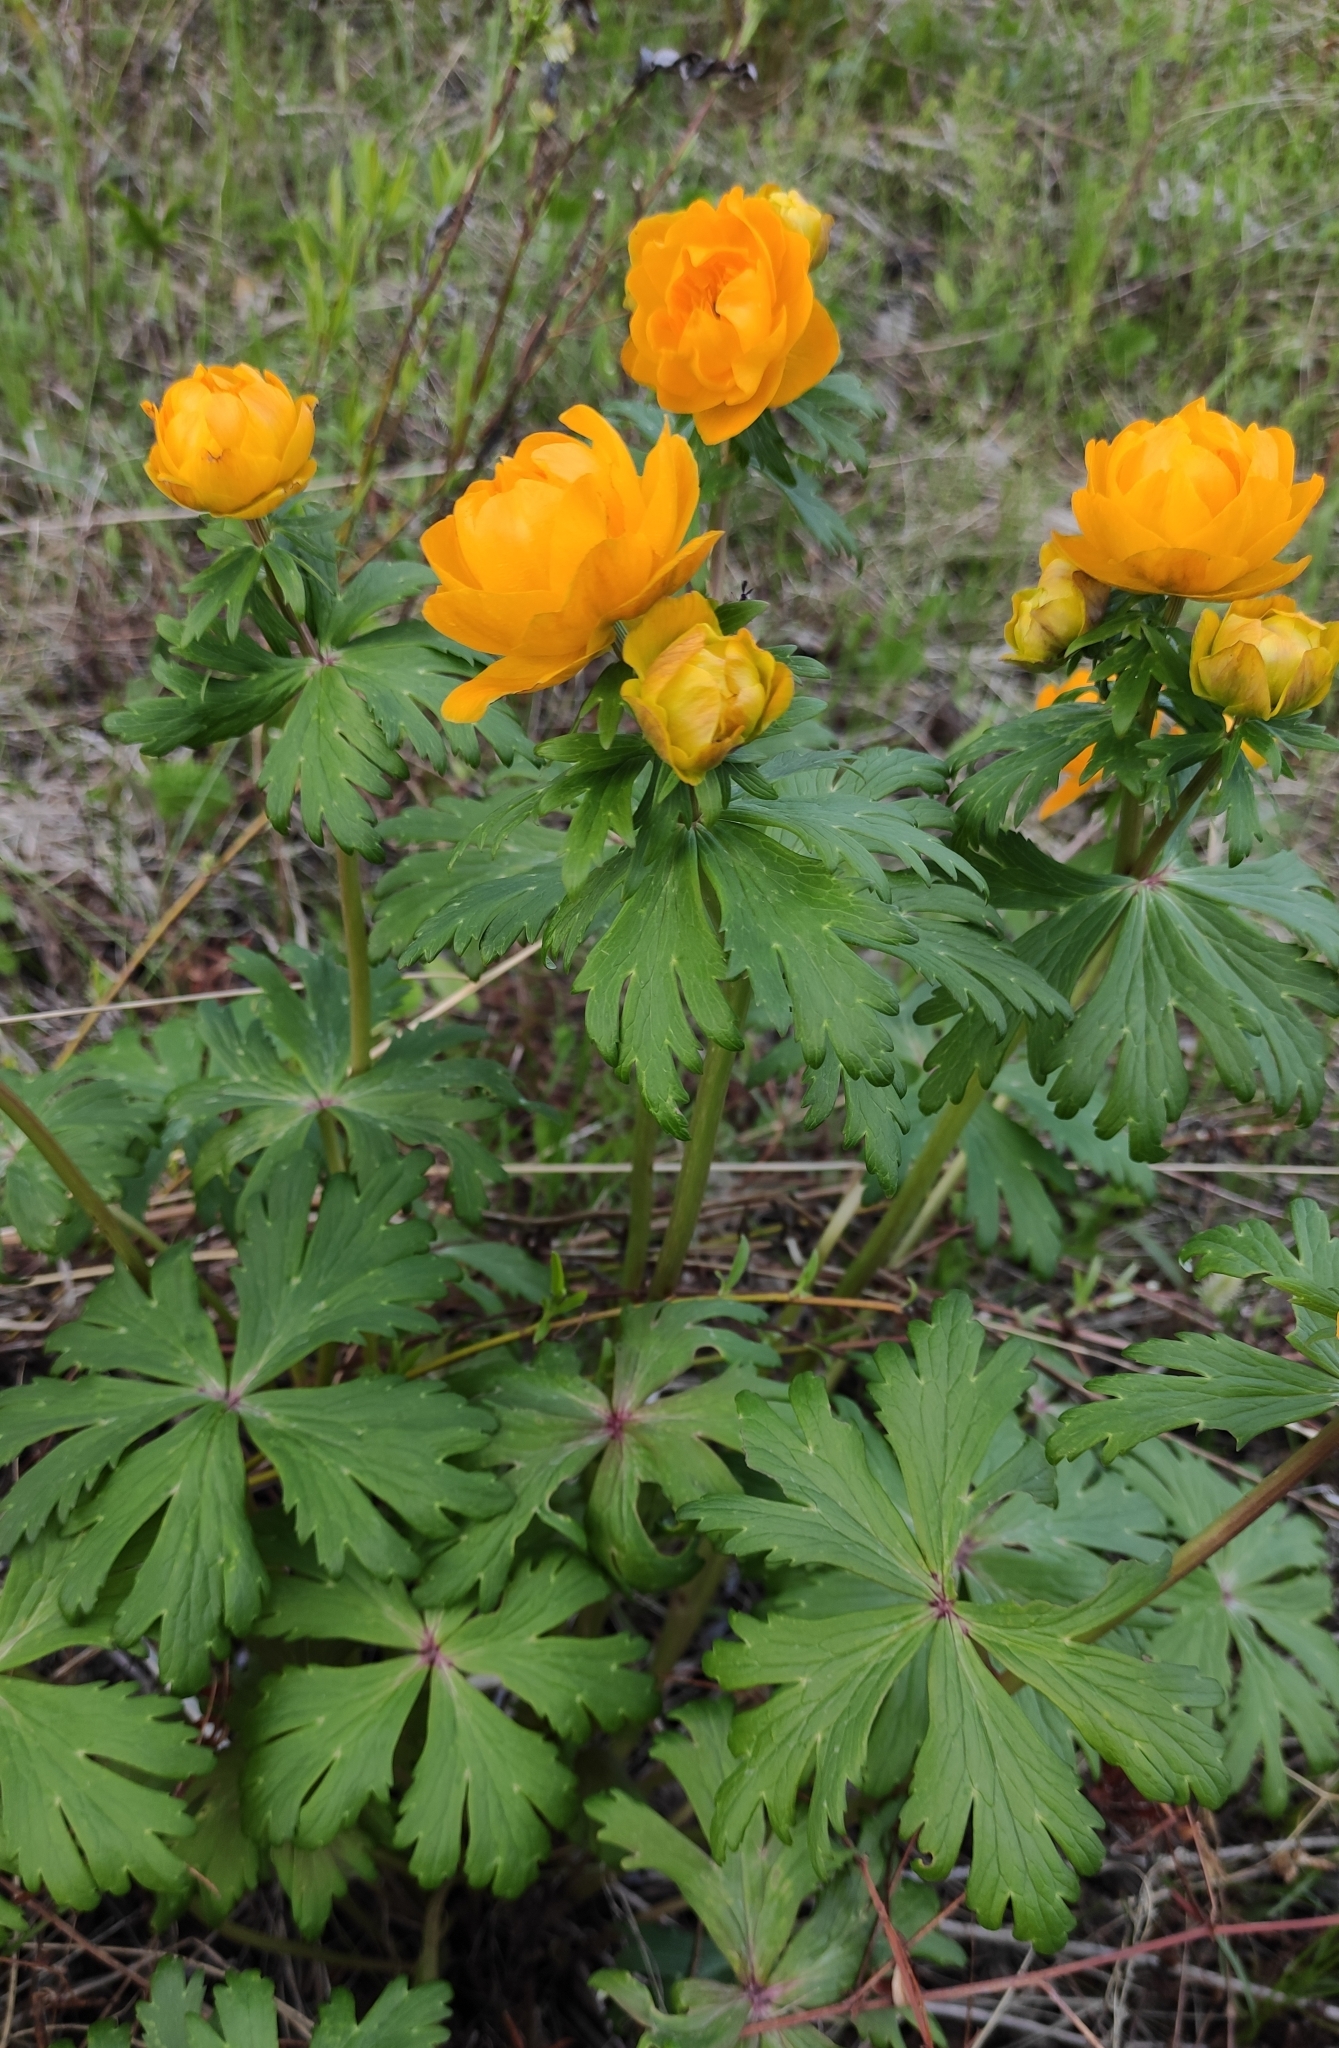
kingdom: Plantae
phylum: Tracheophyta
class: Magnoliopsida
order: Ranunculales
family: Ranunculaceae
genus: Trollius
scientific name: Trollius kytmanovii
